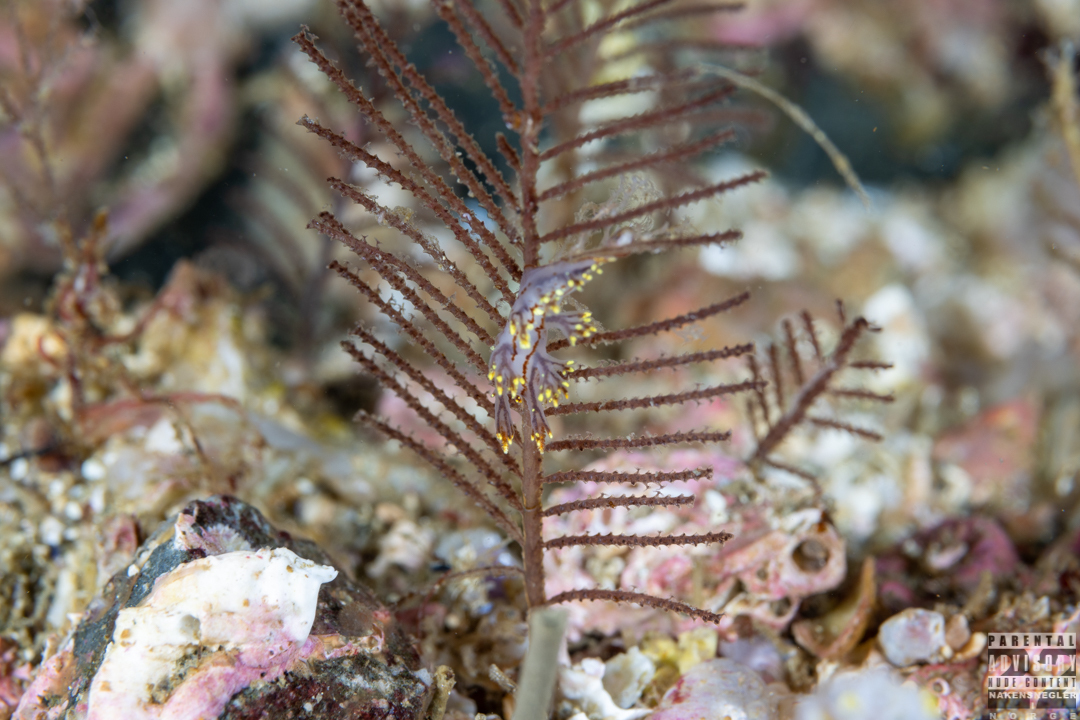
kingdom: Animalia
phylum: Mollusca
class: Gastropoda
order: Nudibranchia
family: Dendronotidae
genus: Dendronotus
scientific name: Dendronotus yrjargul
